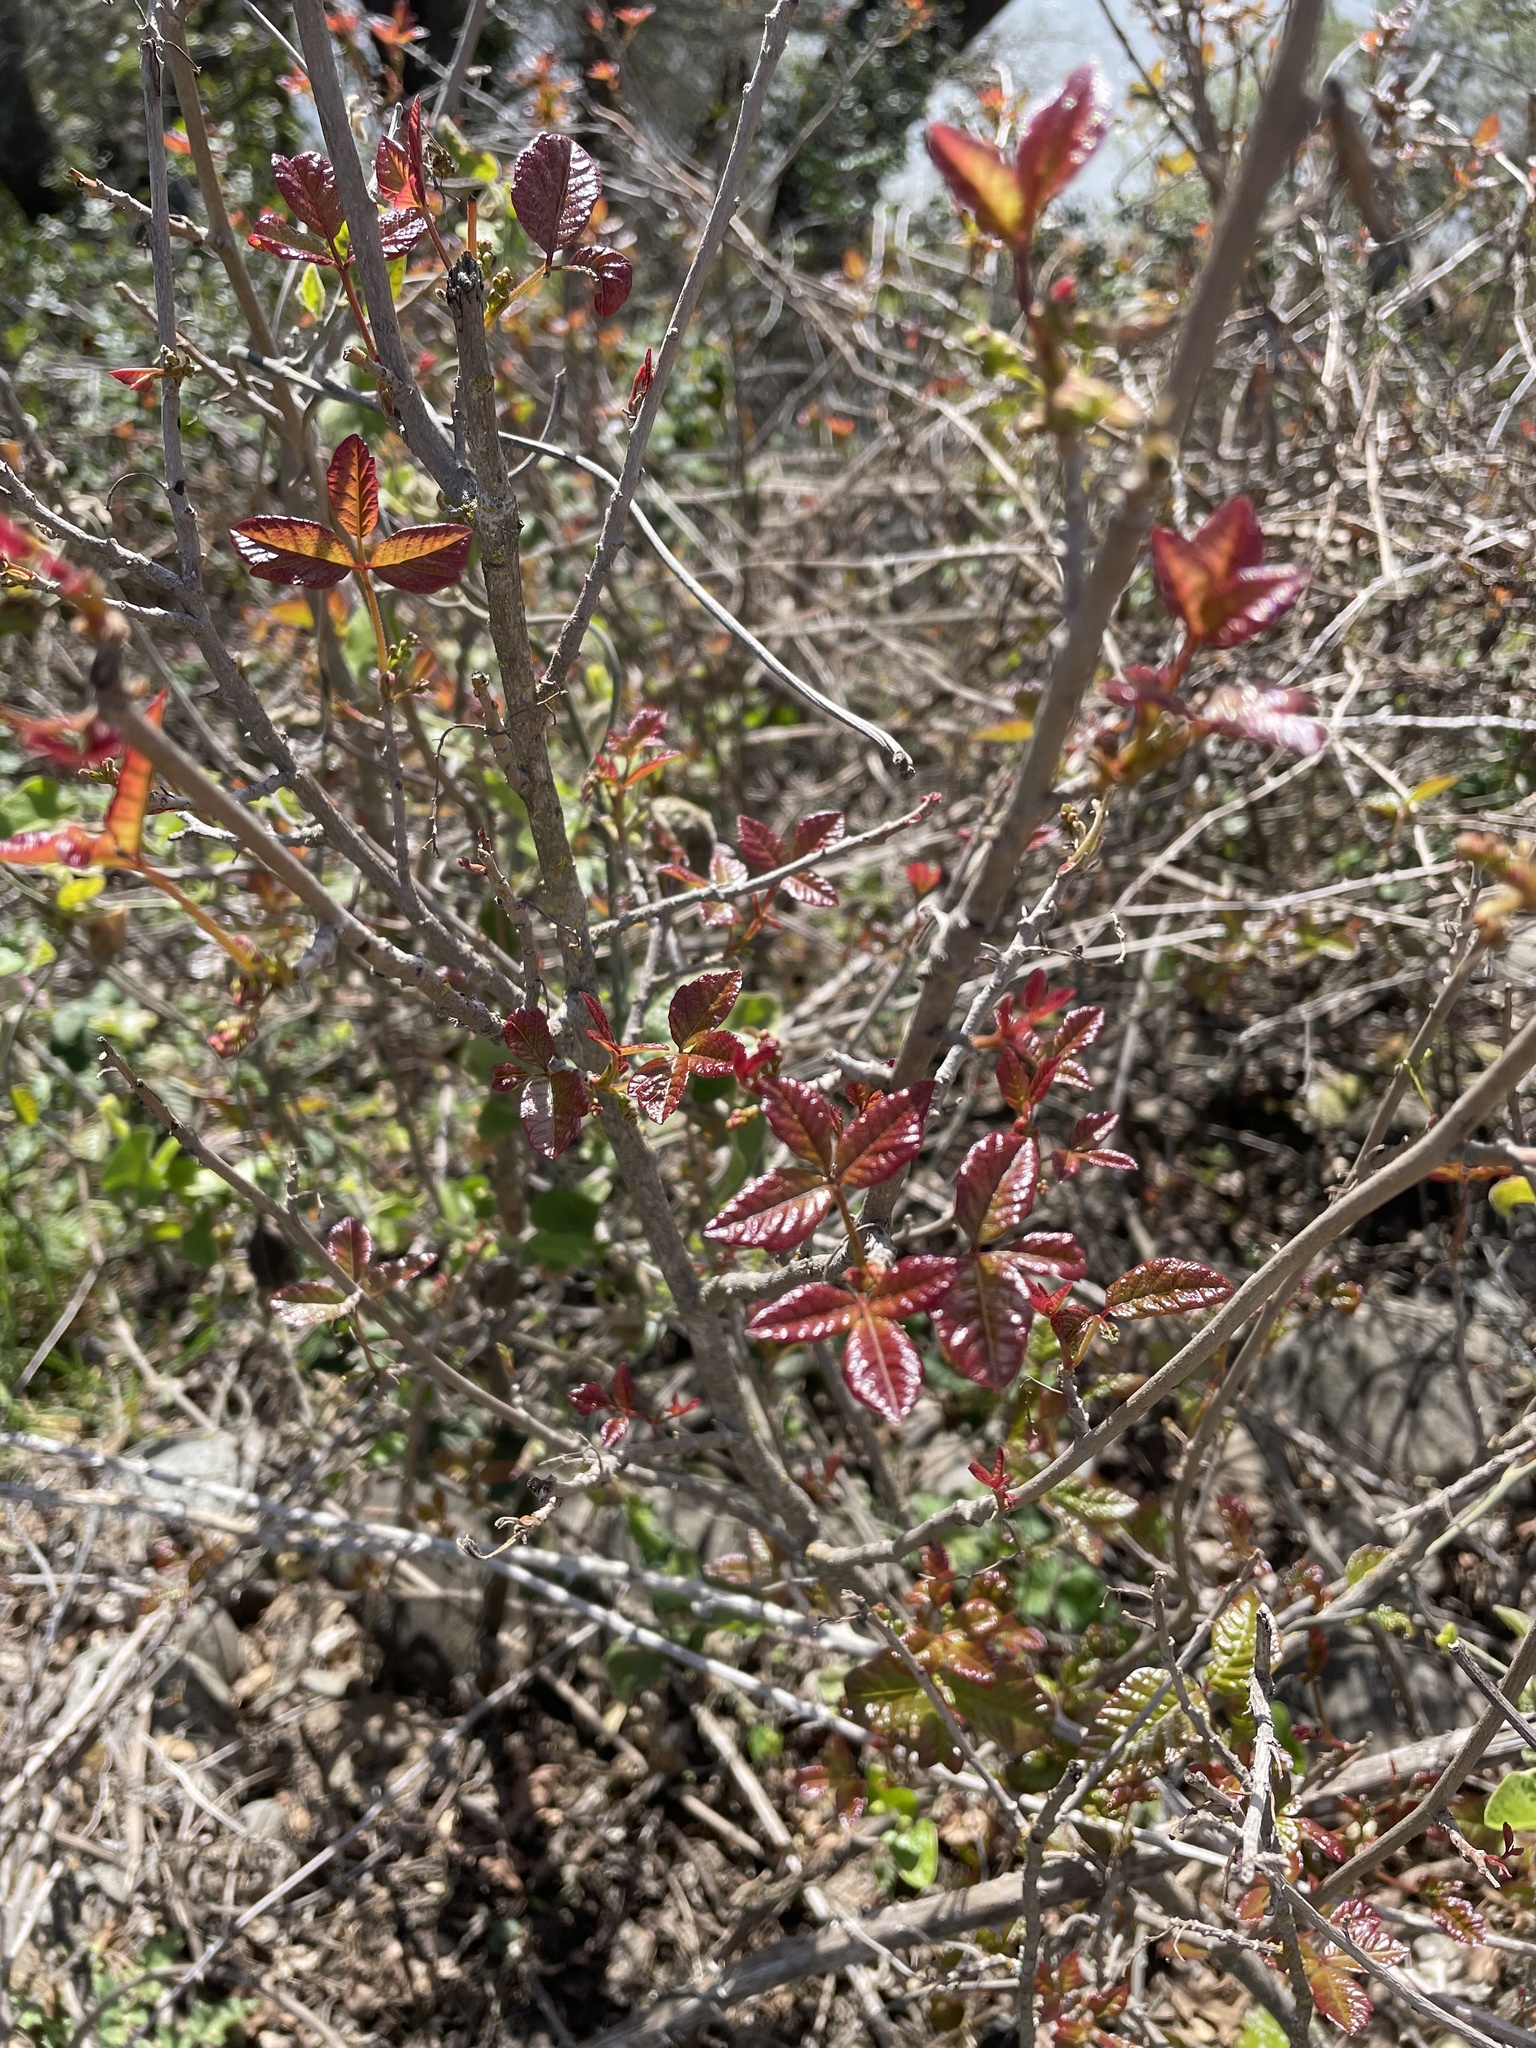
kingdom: Plantae
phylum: Tracheophyta
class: Magnoliopsida
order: Sapindales
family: Anacardiaceae
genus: Toxicodendron
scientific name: Toxicodendron diversilobum
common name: Pacific poison-oak
